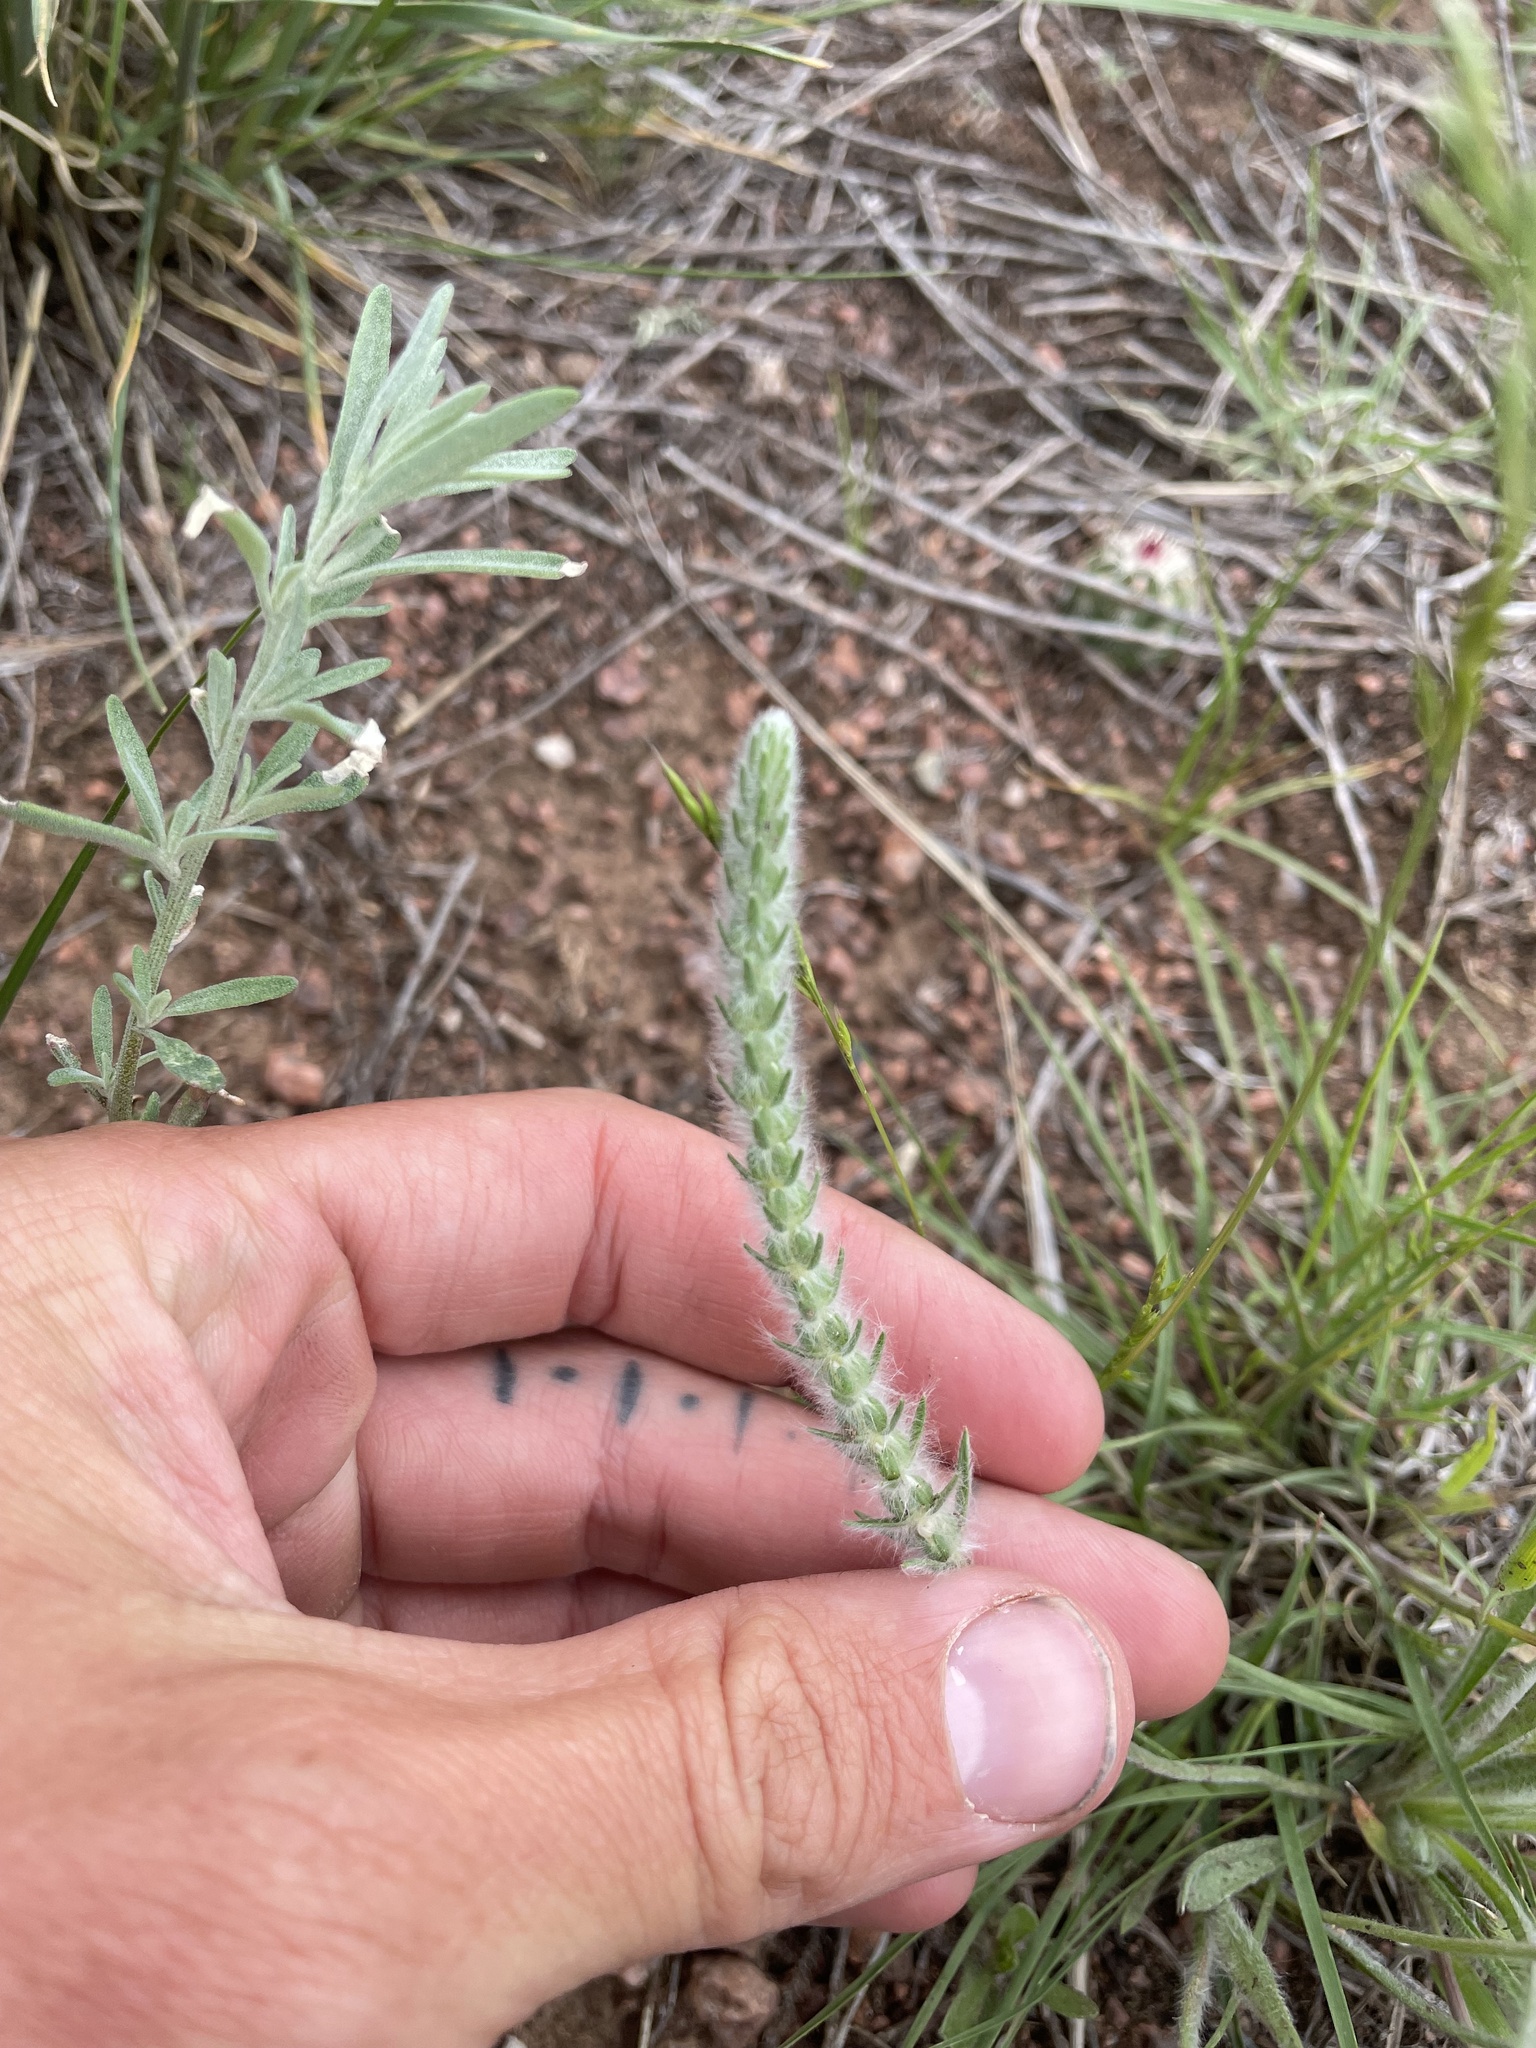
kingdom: Plantae
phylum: Tracheophyta
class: Magnoliopsida
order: Lamiales
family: Plantaginaceae
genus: Plantago
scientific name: Plantago patagonica
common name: Patagonia indian-wheat
